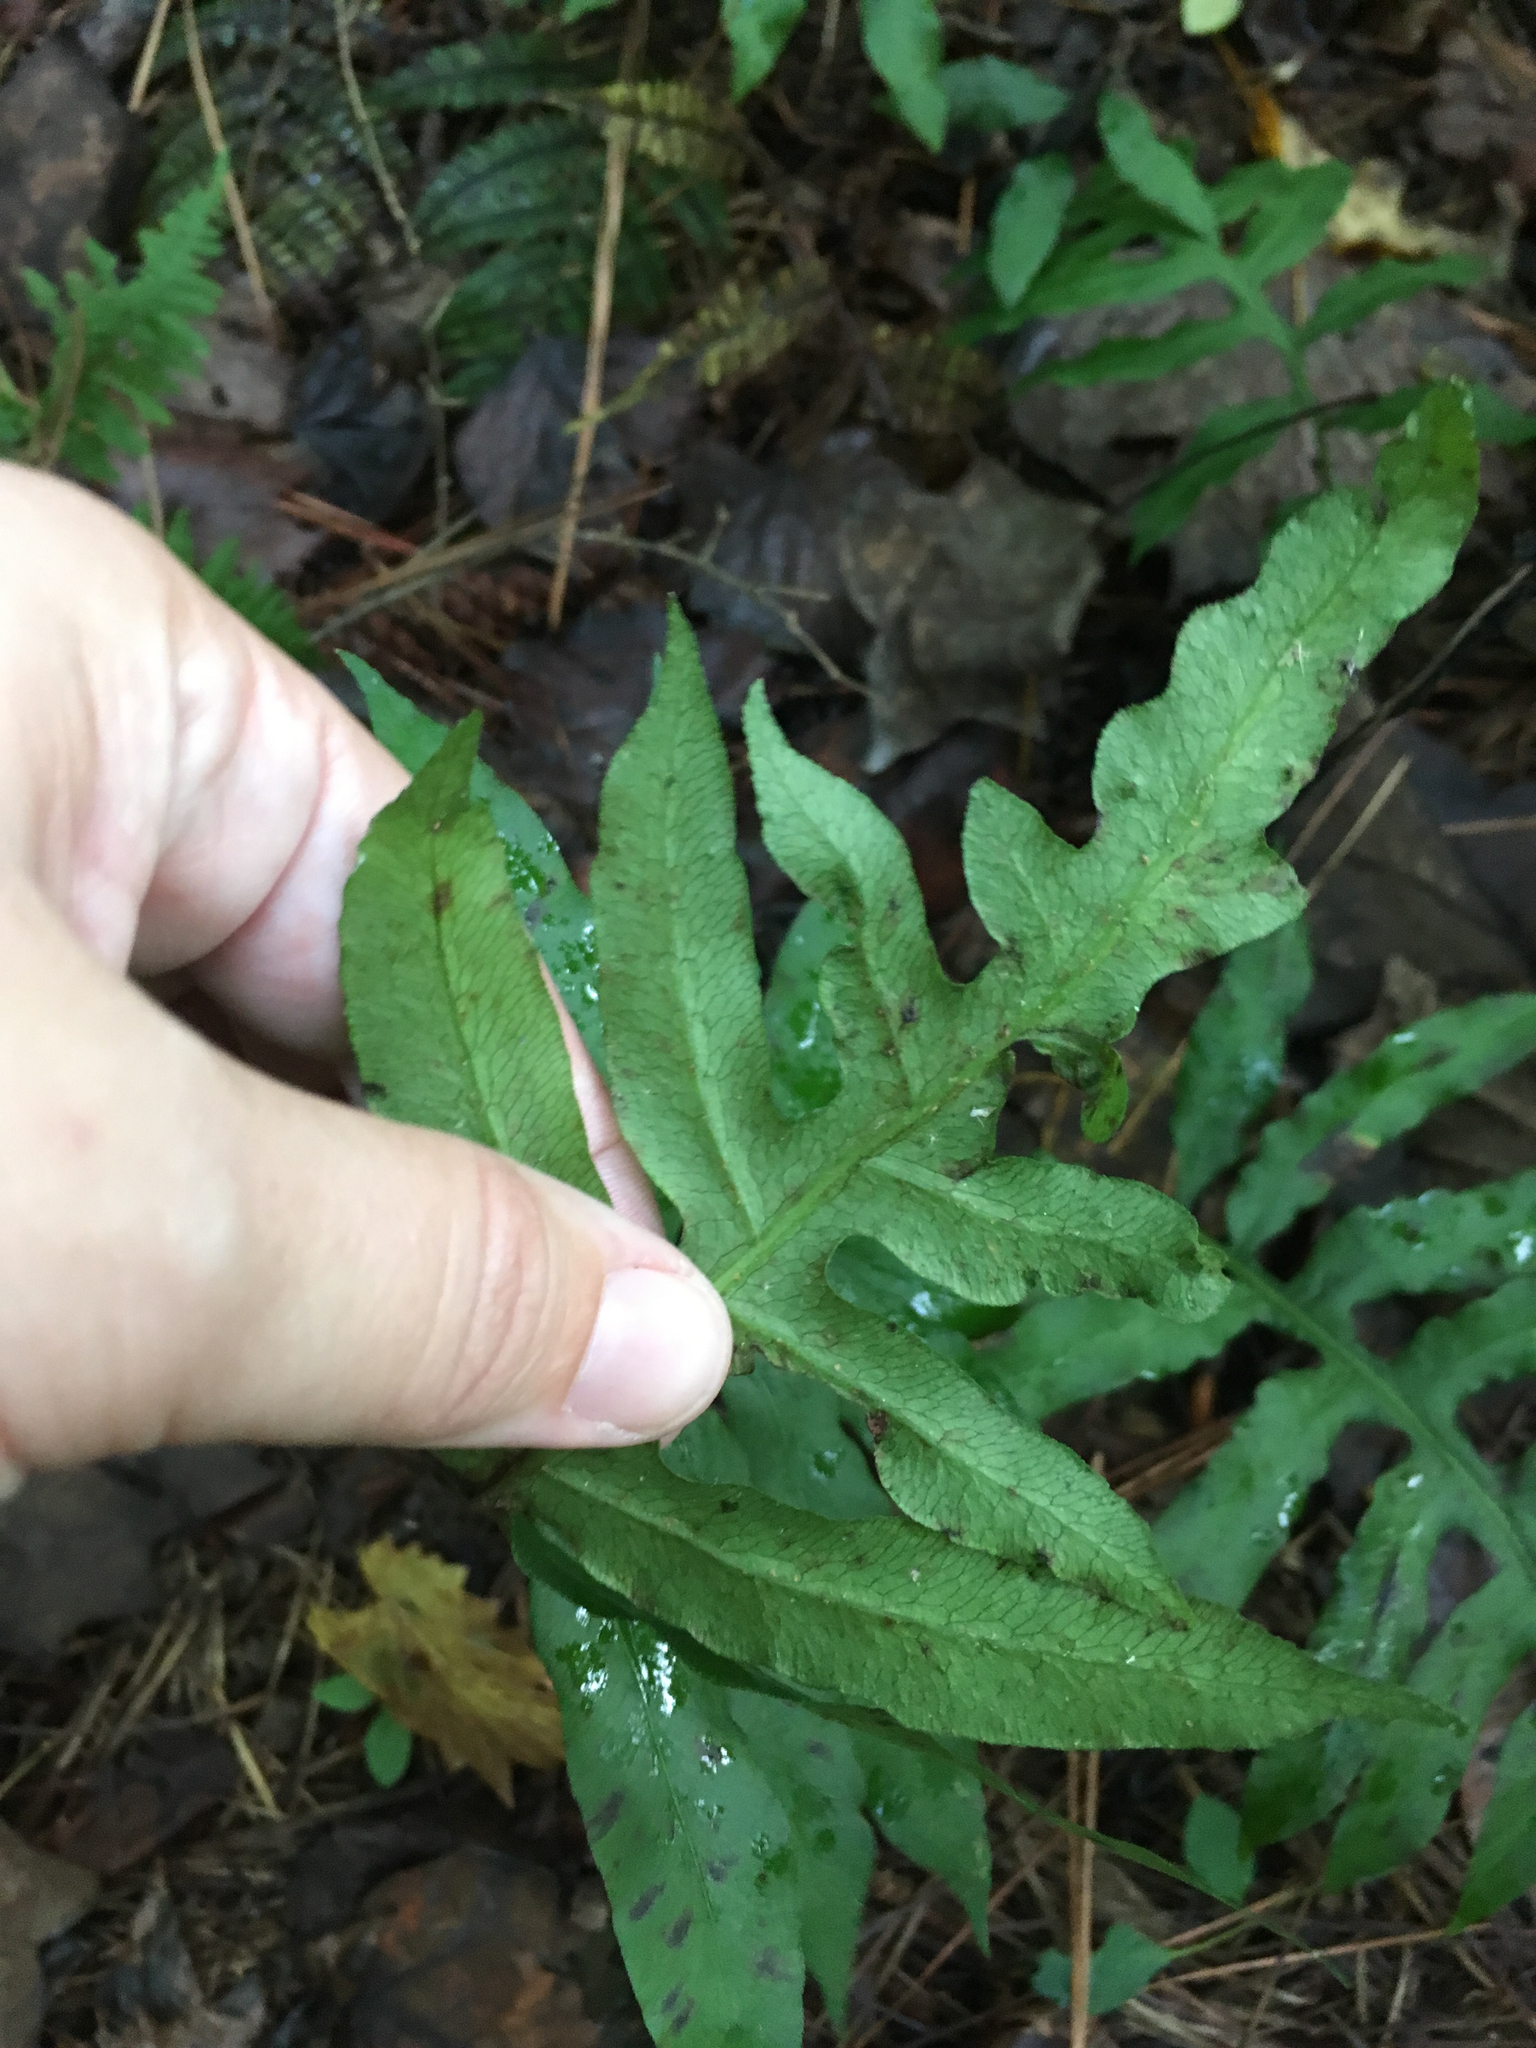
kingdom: Plantae
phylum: Tracheophyta
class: Polypodiopsida
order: Polypodiales
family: Blechnaceae
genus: Lorinseria
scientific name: Lorinseria areolata
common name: Dwarf chain fern
